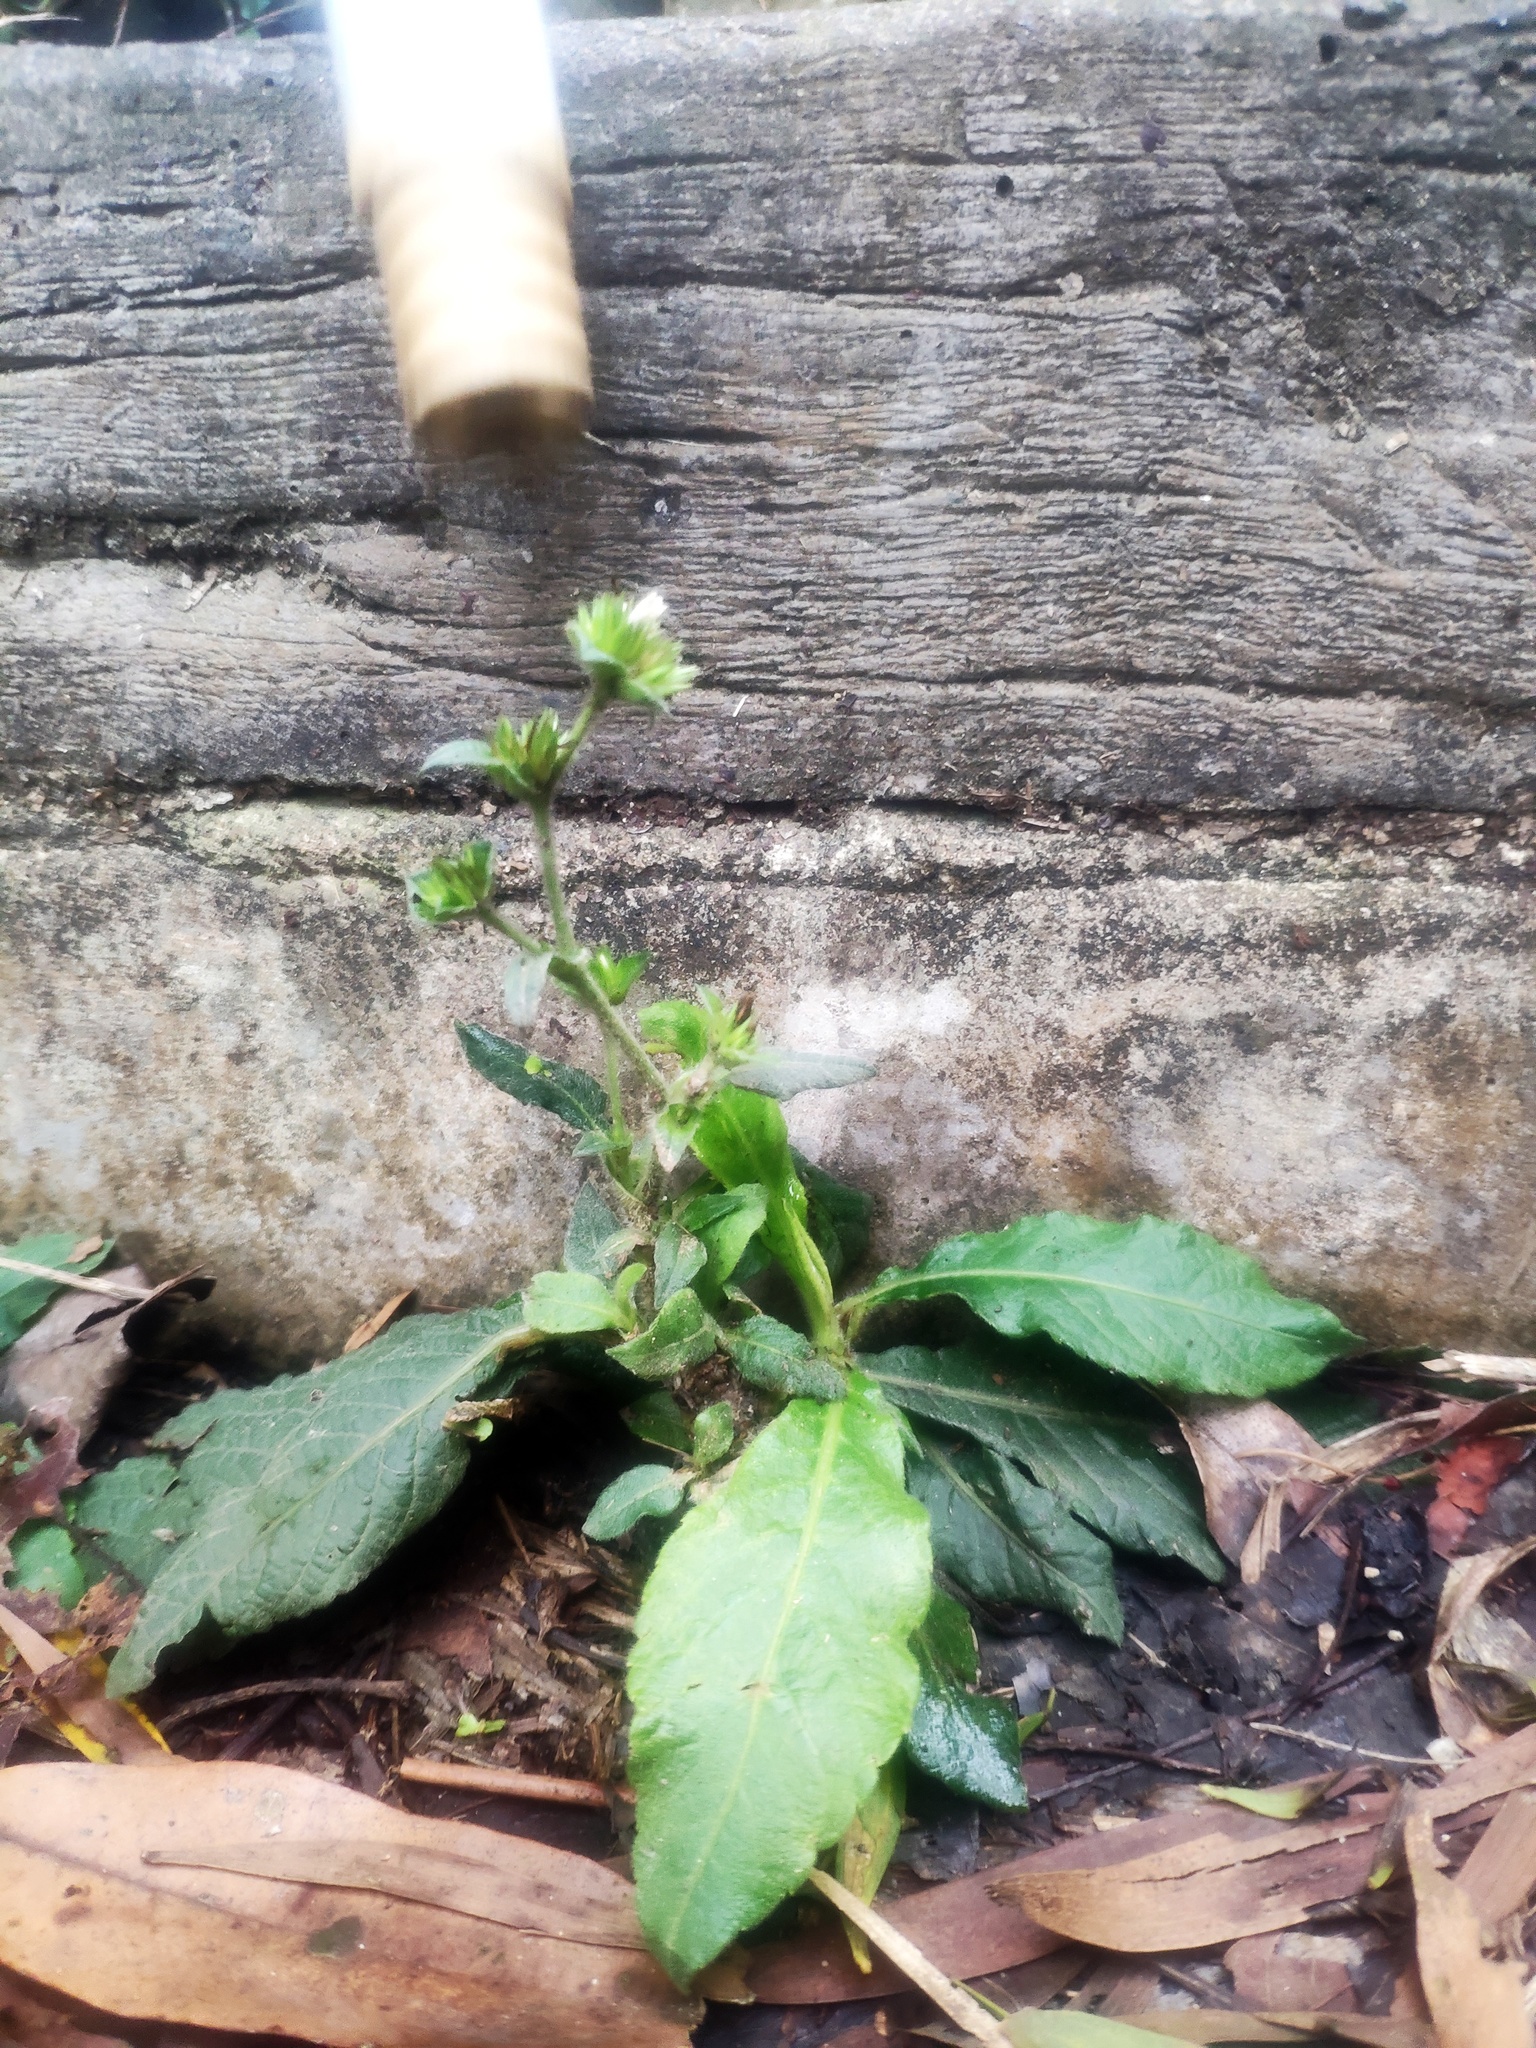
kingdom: Plantae
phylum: Tracheophyta
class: Magnoliopsida
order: Asterales
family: Asteraceae
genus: Elephantopus
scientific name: Elephantopus mollis
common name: Soft elephantsfoot
